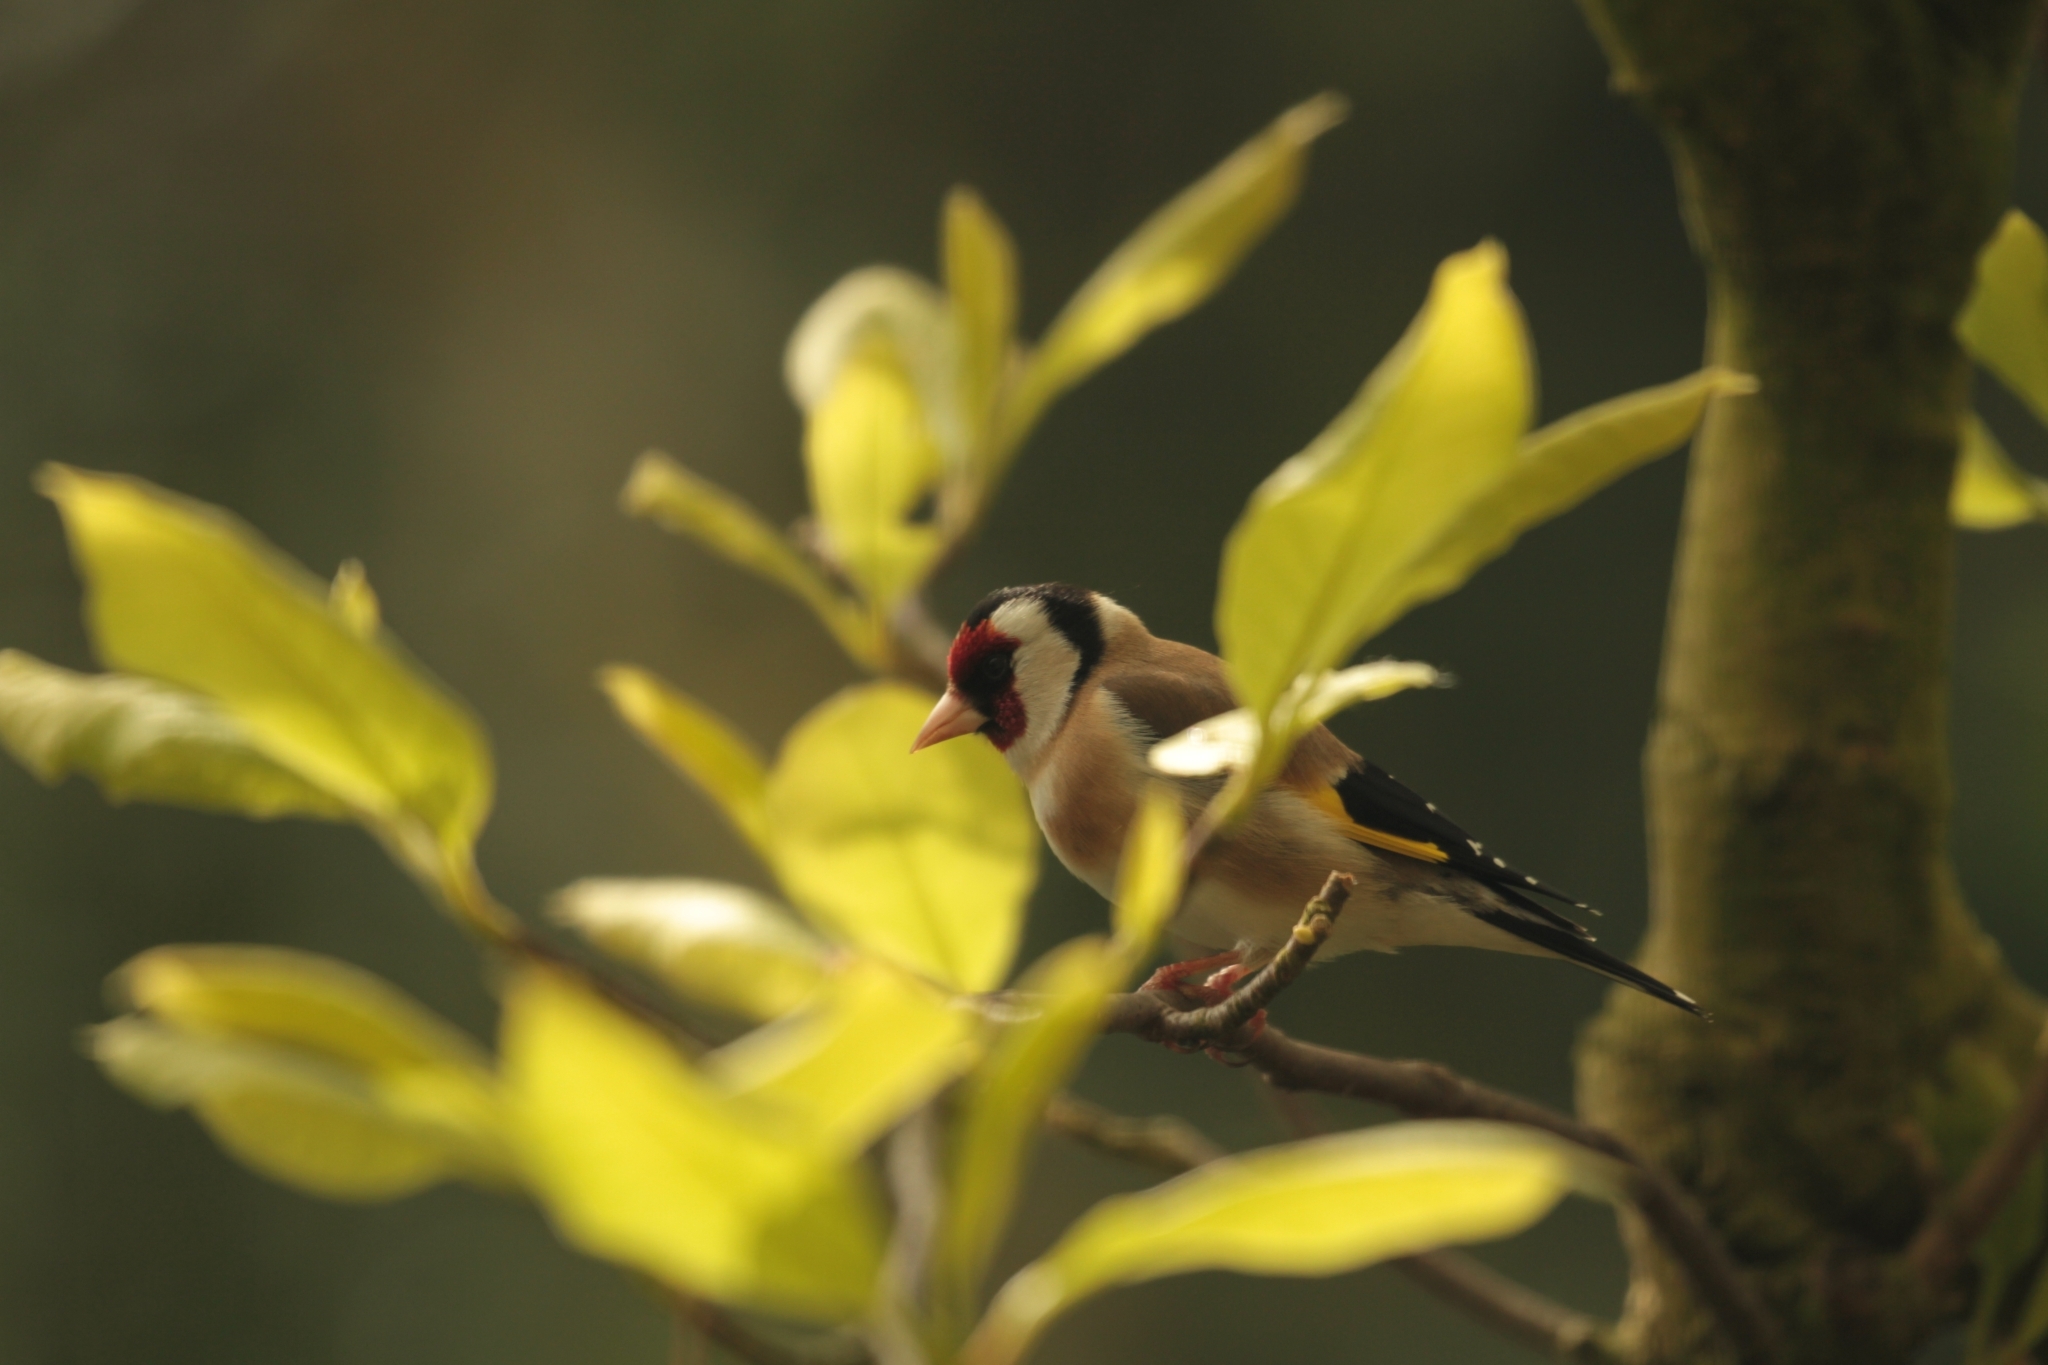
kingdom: Animalia
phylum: Chordata
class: Aves
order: Passeriformes
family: Fringillidae
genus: Carduelis
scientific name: Carduelis carduelis
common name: European goldfinch
